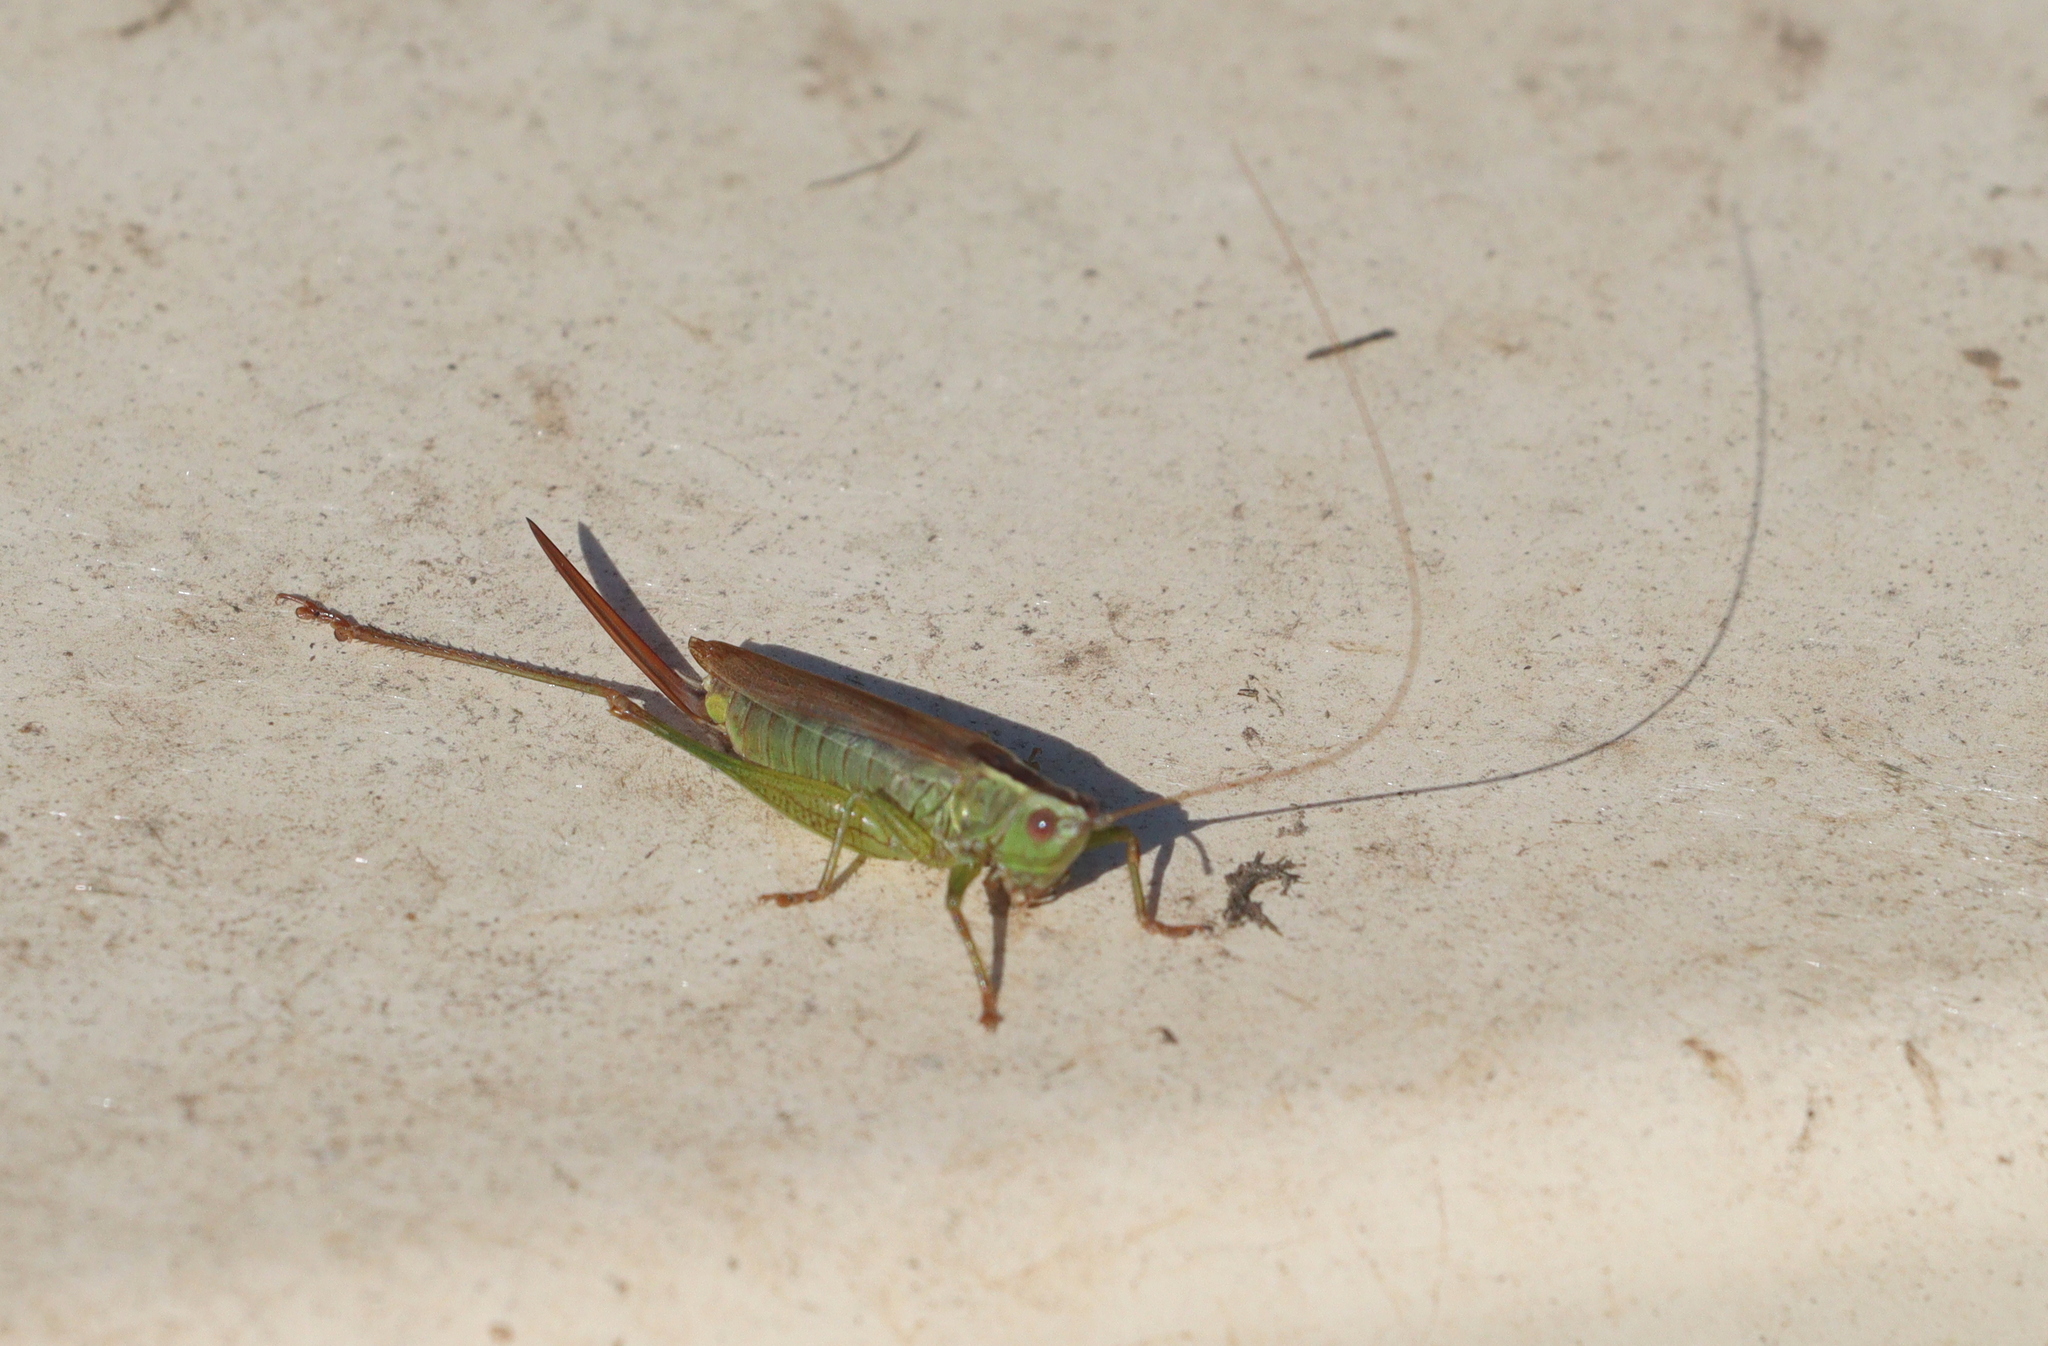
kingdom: Animalia
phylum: Arthropoda
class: Insecta
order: Orthoptera
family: Tettigoniidae
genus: Conocephalus
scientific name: Conocephalus fuscus
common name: Long-winged conehead
